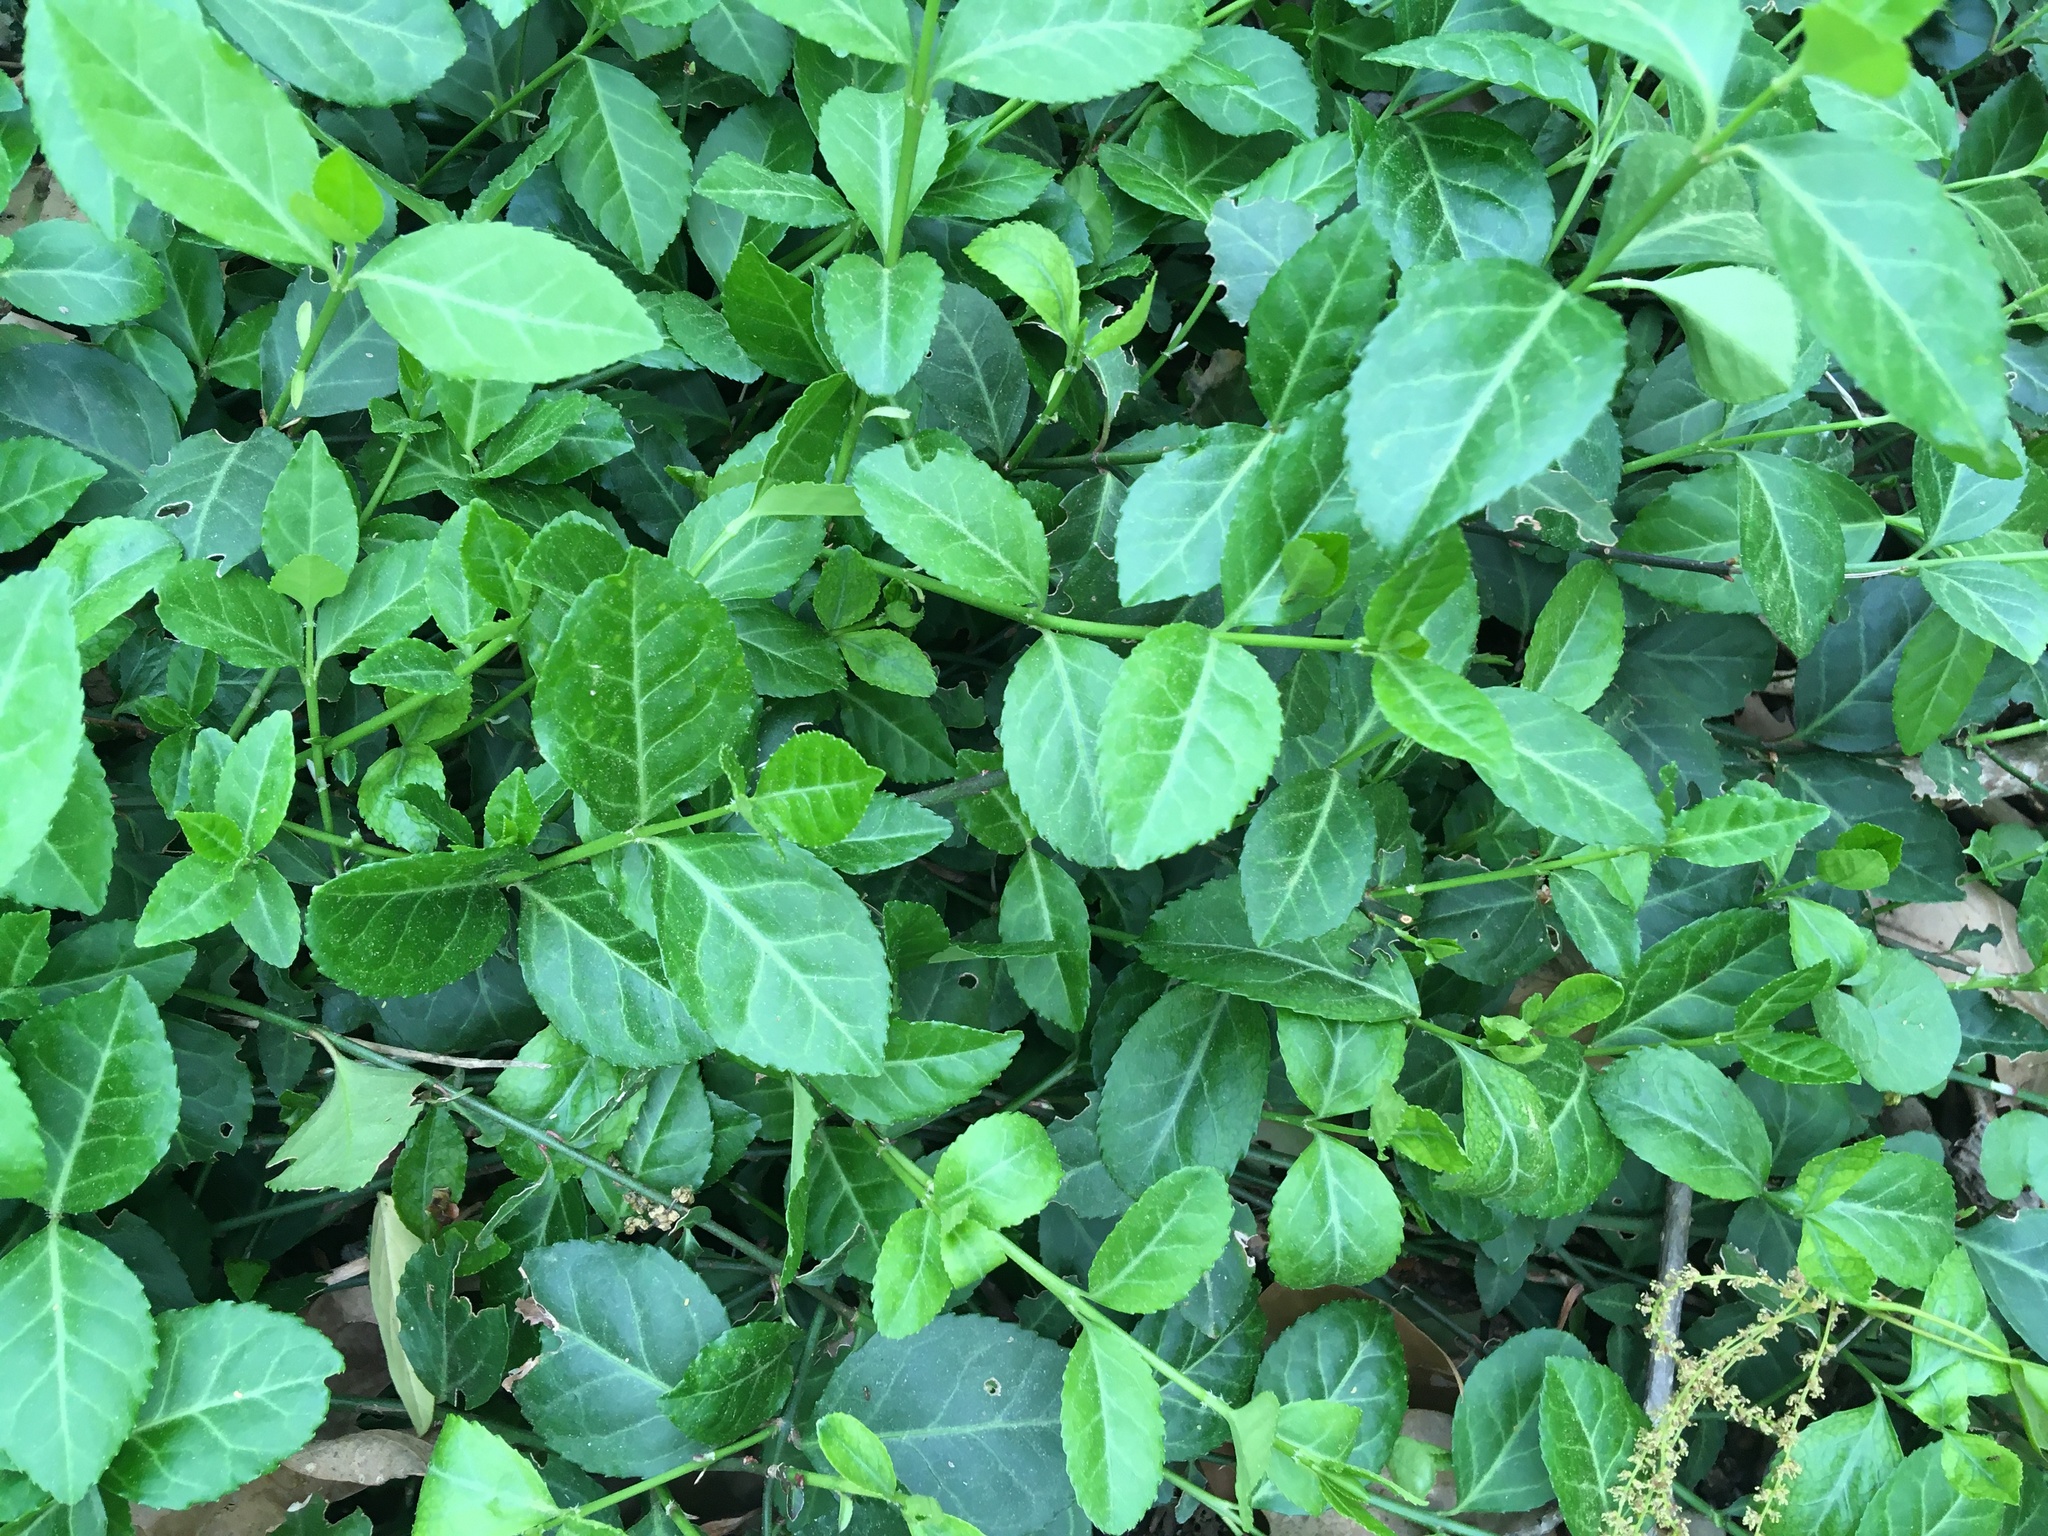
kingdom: Plantae
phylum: Tracheophyta
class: Magnoliopsida
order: Celastrales
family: Celastraceae
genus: Euonymus
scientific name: Euonymus fortunei
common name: Climbing euonymus
